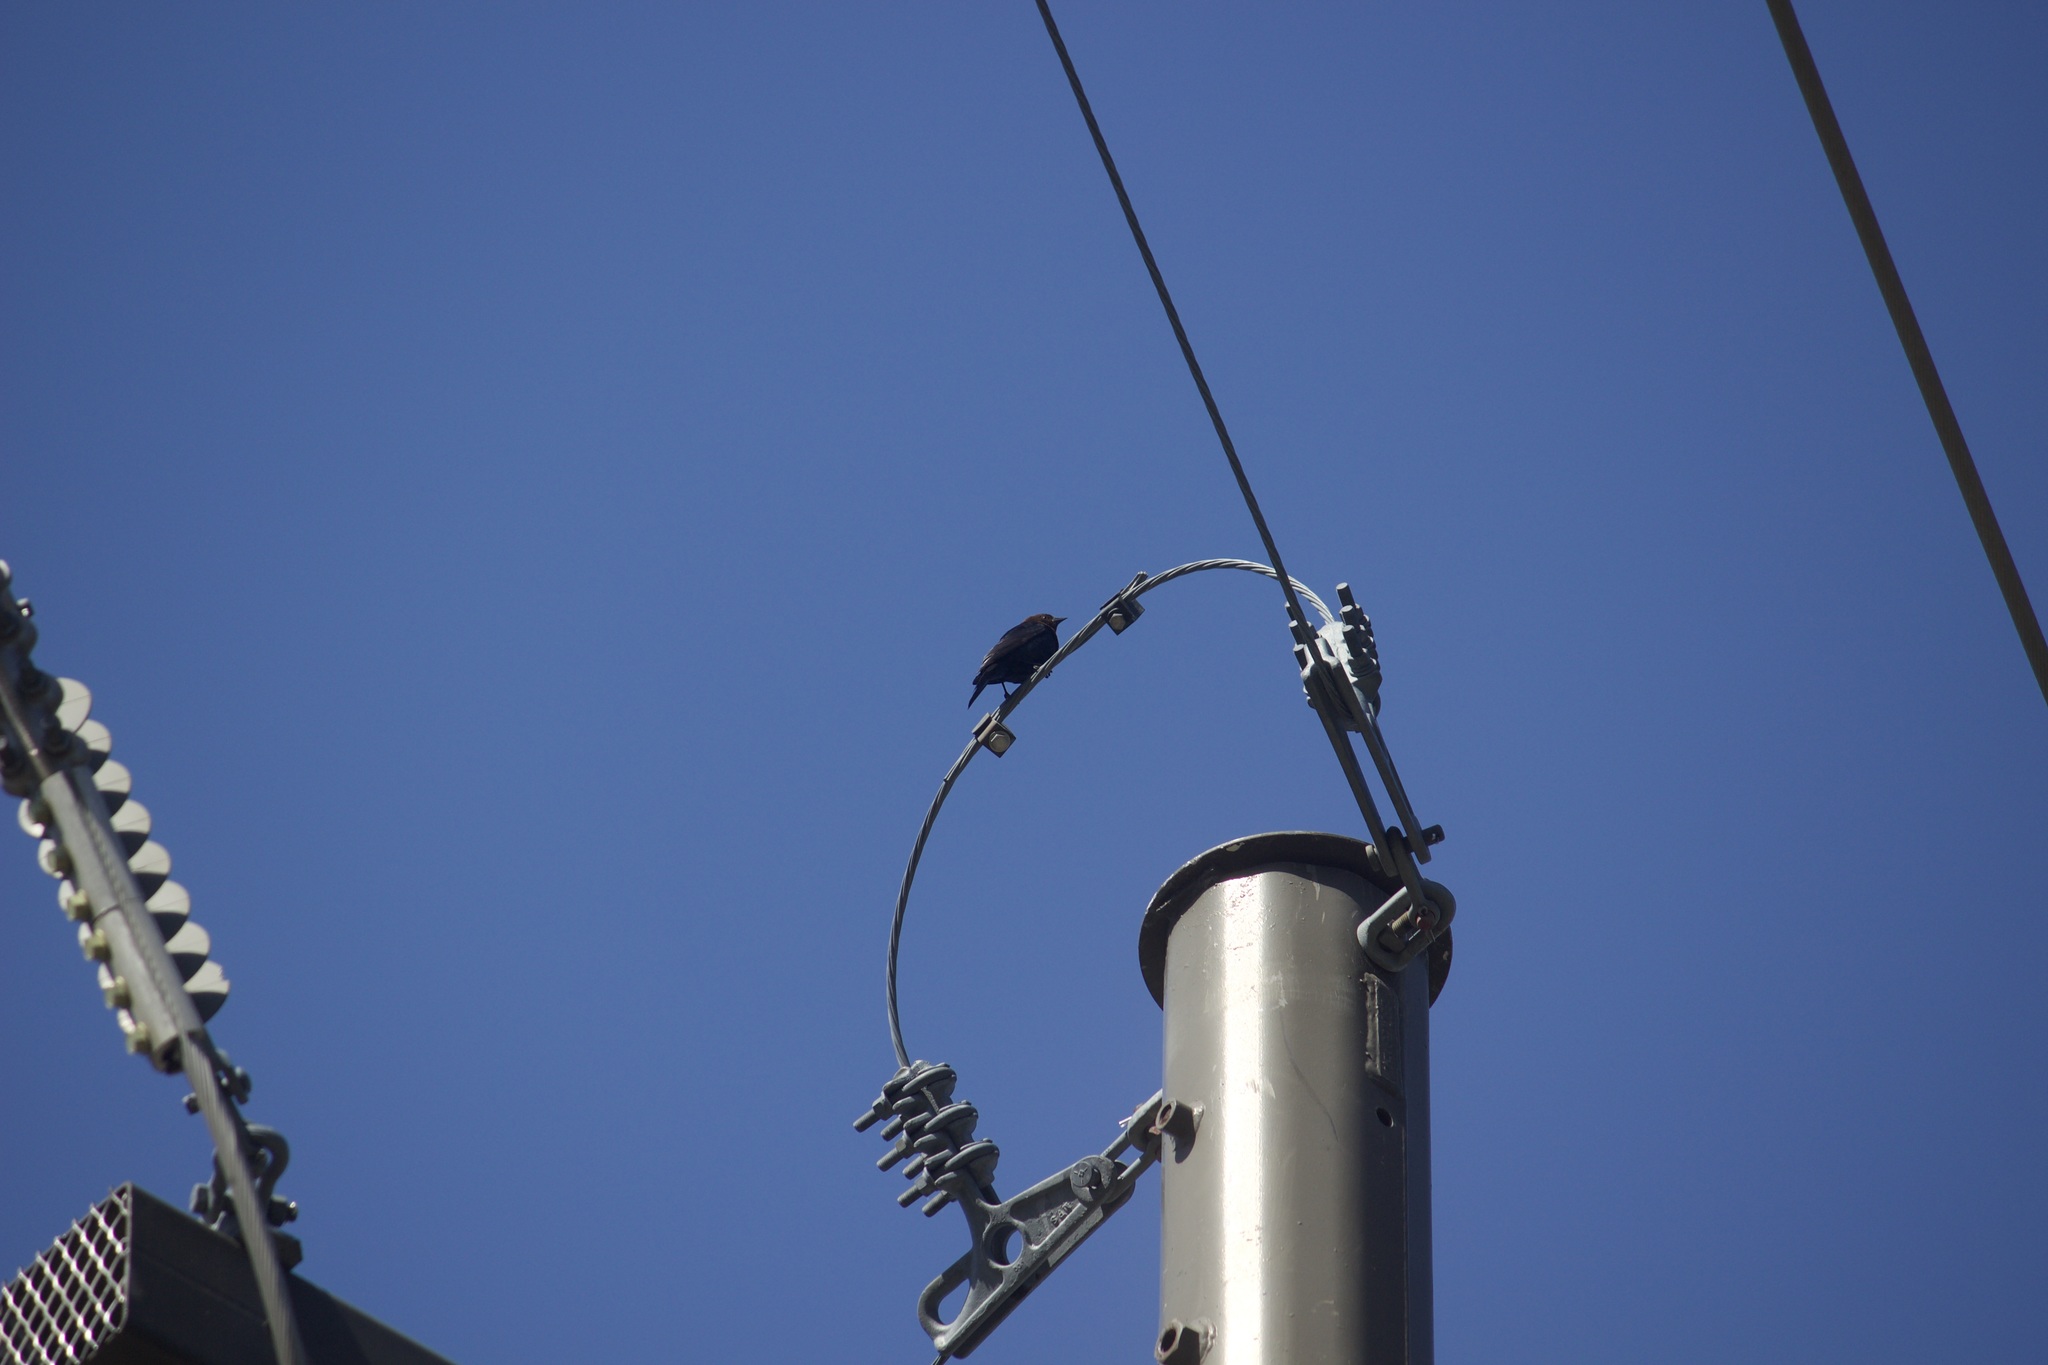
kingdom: Animalia
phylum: Chordata
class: Aves
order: Passeriformes
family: Icteridae
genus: Molothrus
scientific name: Molothrus ater
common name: Brown-headed cowbird
